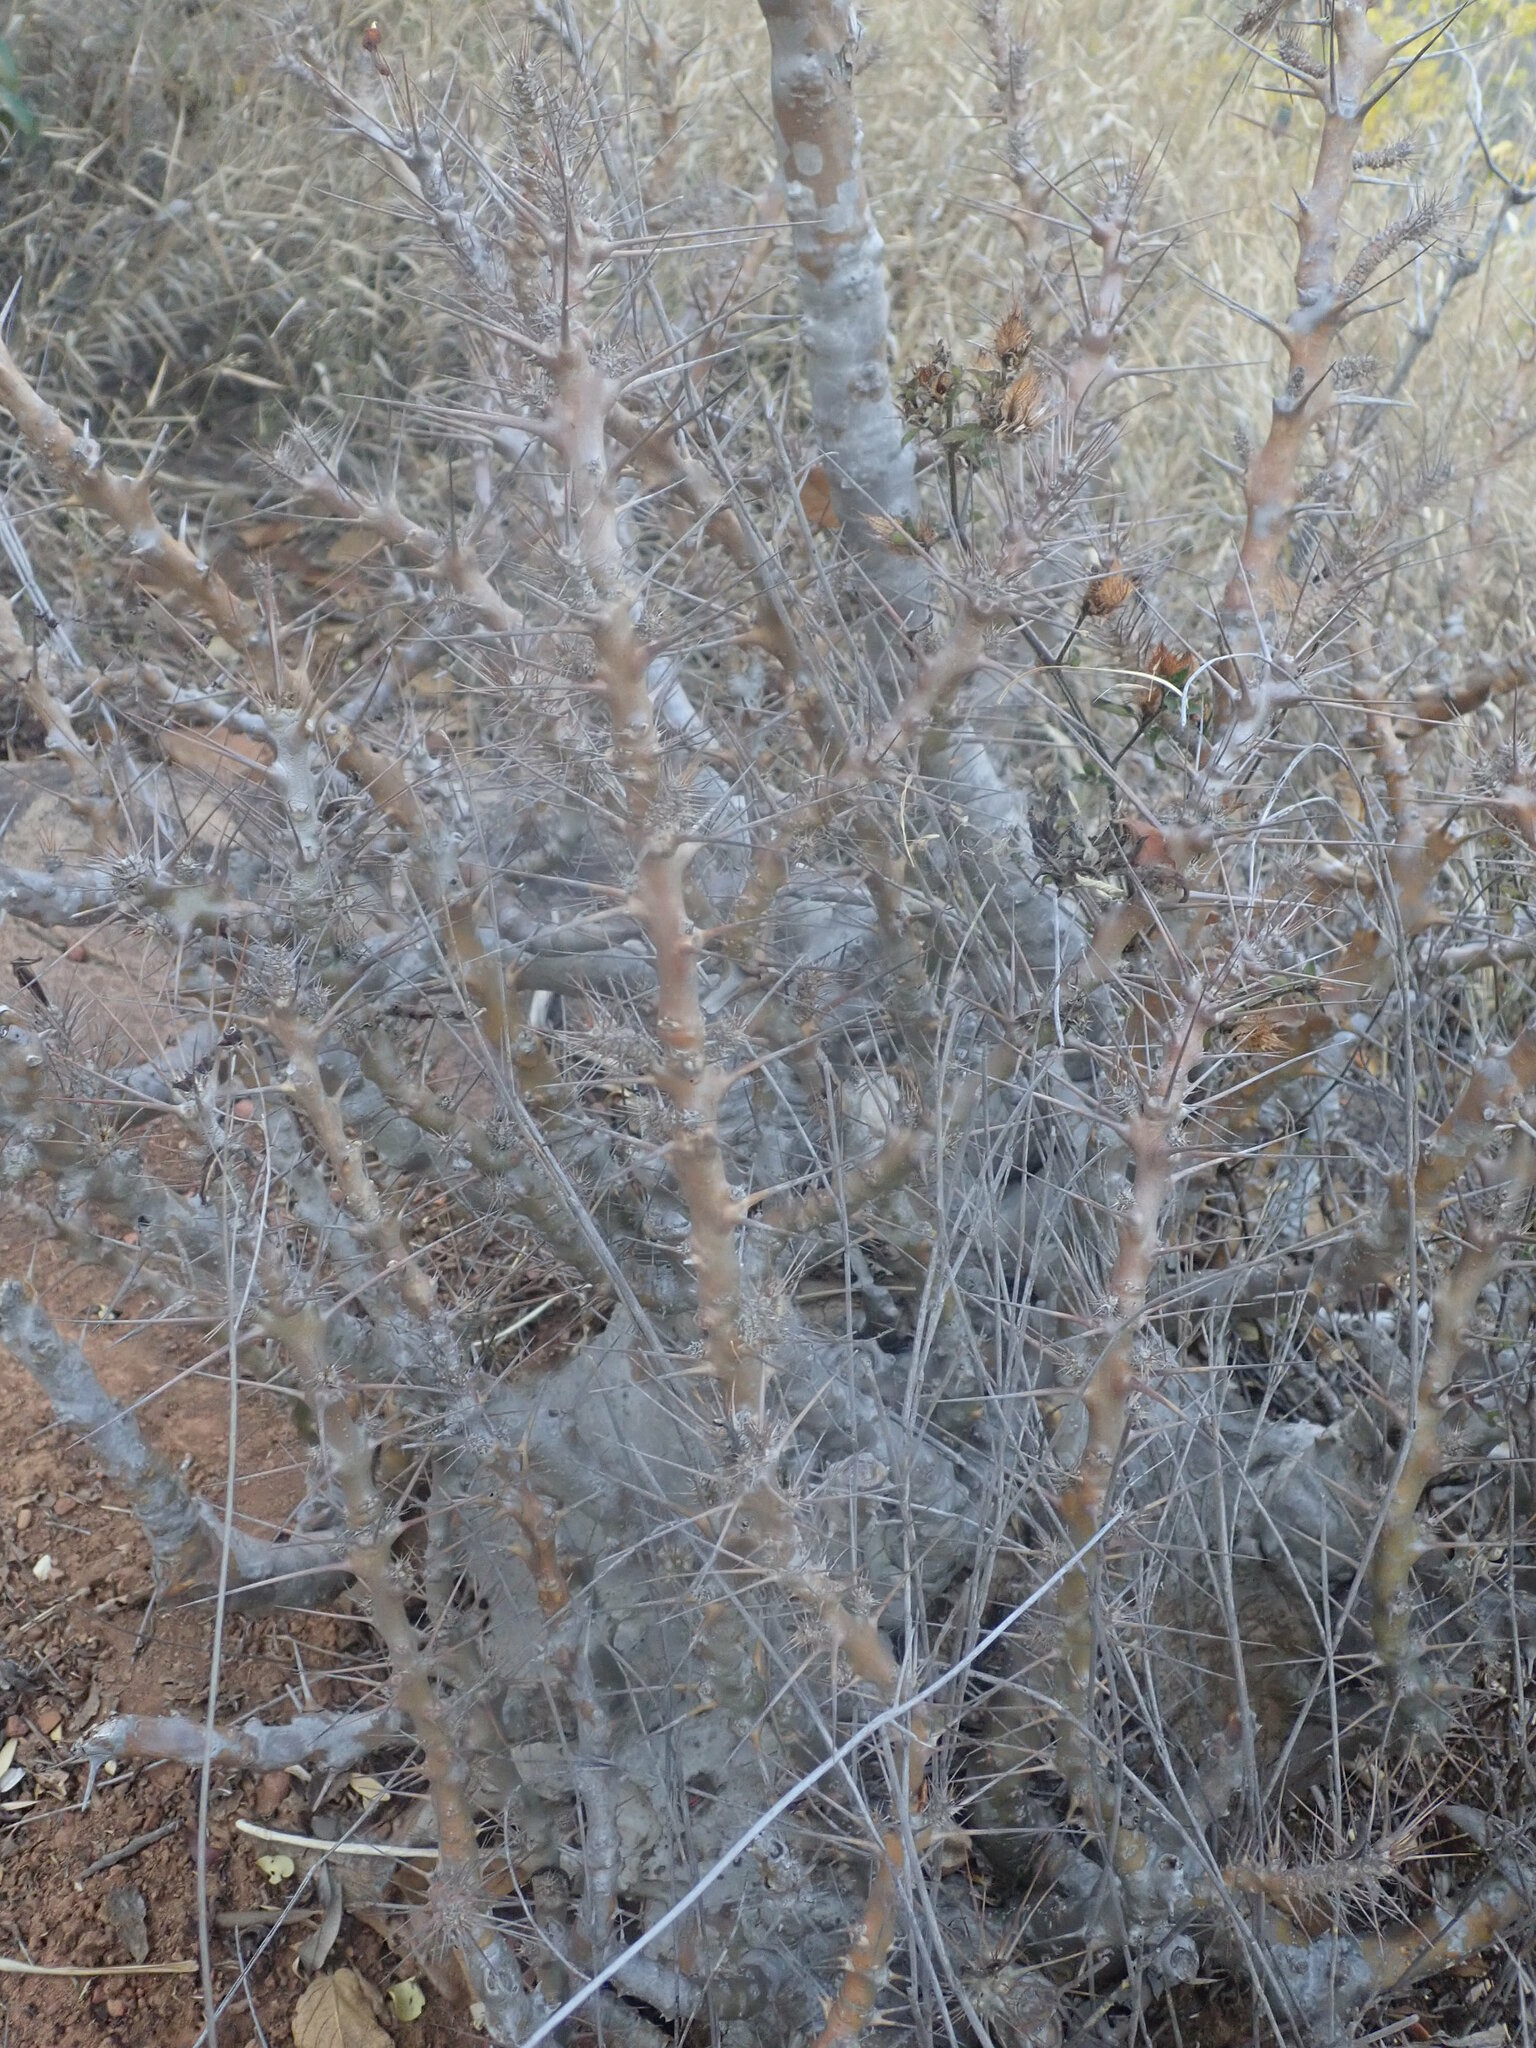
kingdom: Plantae
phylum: Tracheophyta
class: Magnoliopsida
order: Gentianales
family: Apocynaceae
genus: Pachypodium
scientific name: Pachypodium saundersii
